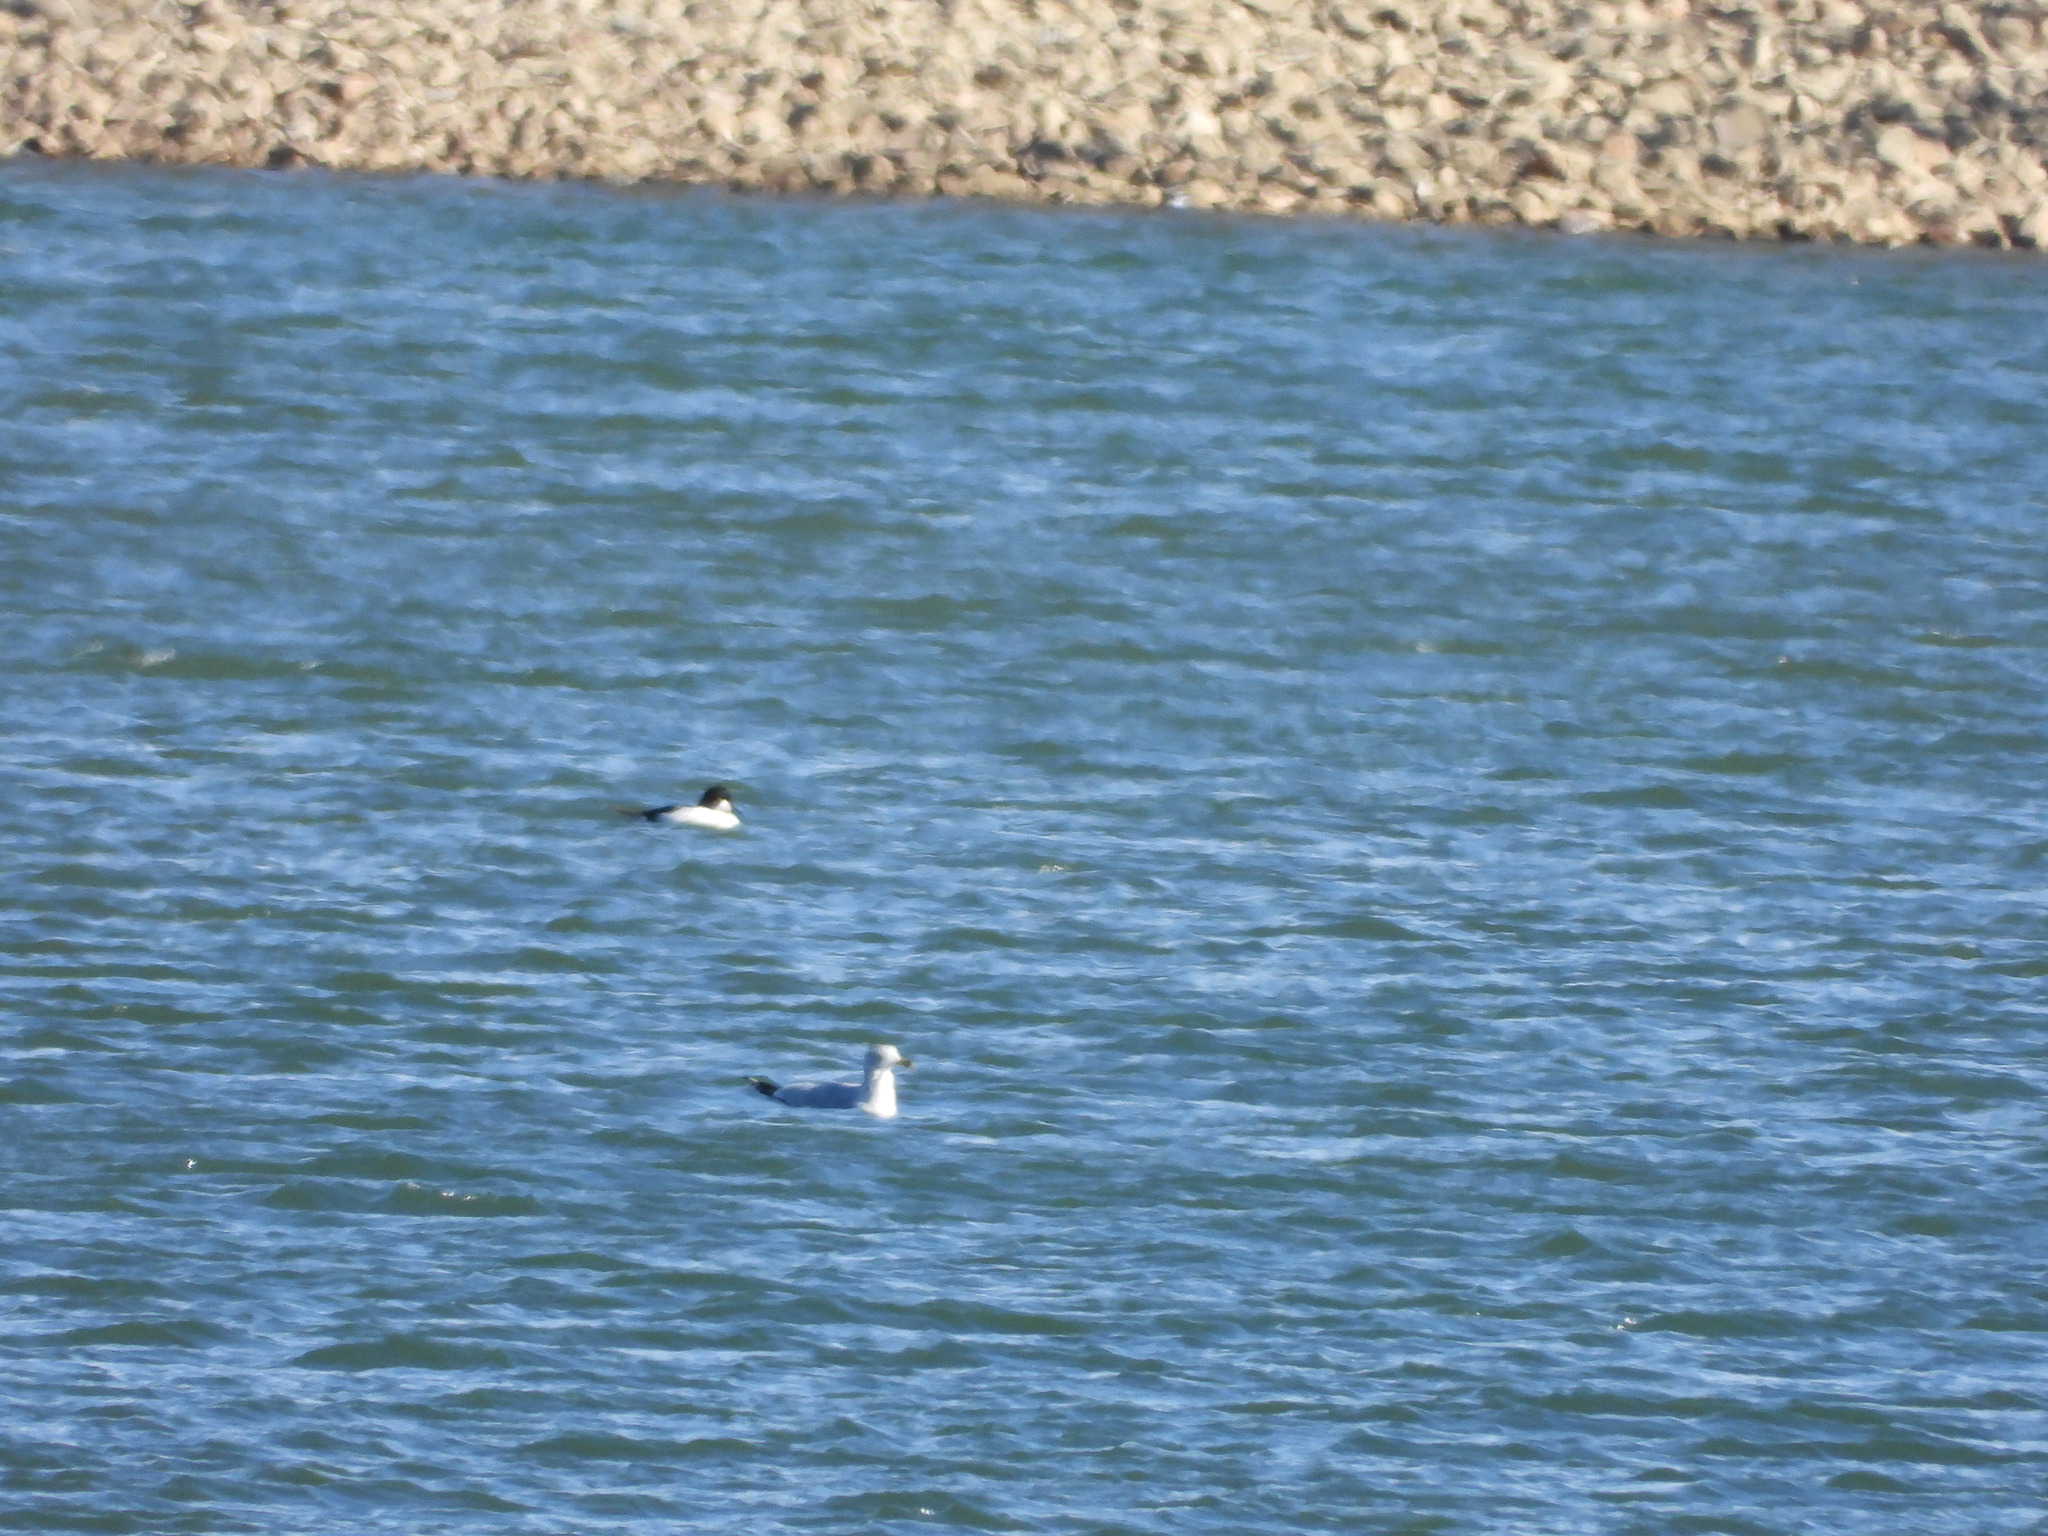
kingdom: Animalia
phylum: Chordata
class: Aves
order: Charadriiformes
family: Laridae
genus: Larus
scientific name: Larus delawarensis
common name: Ring-billed gull
